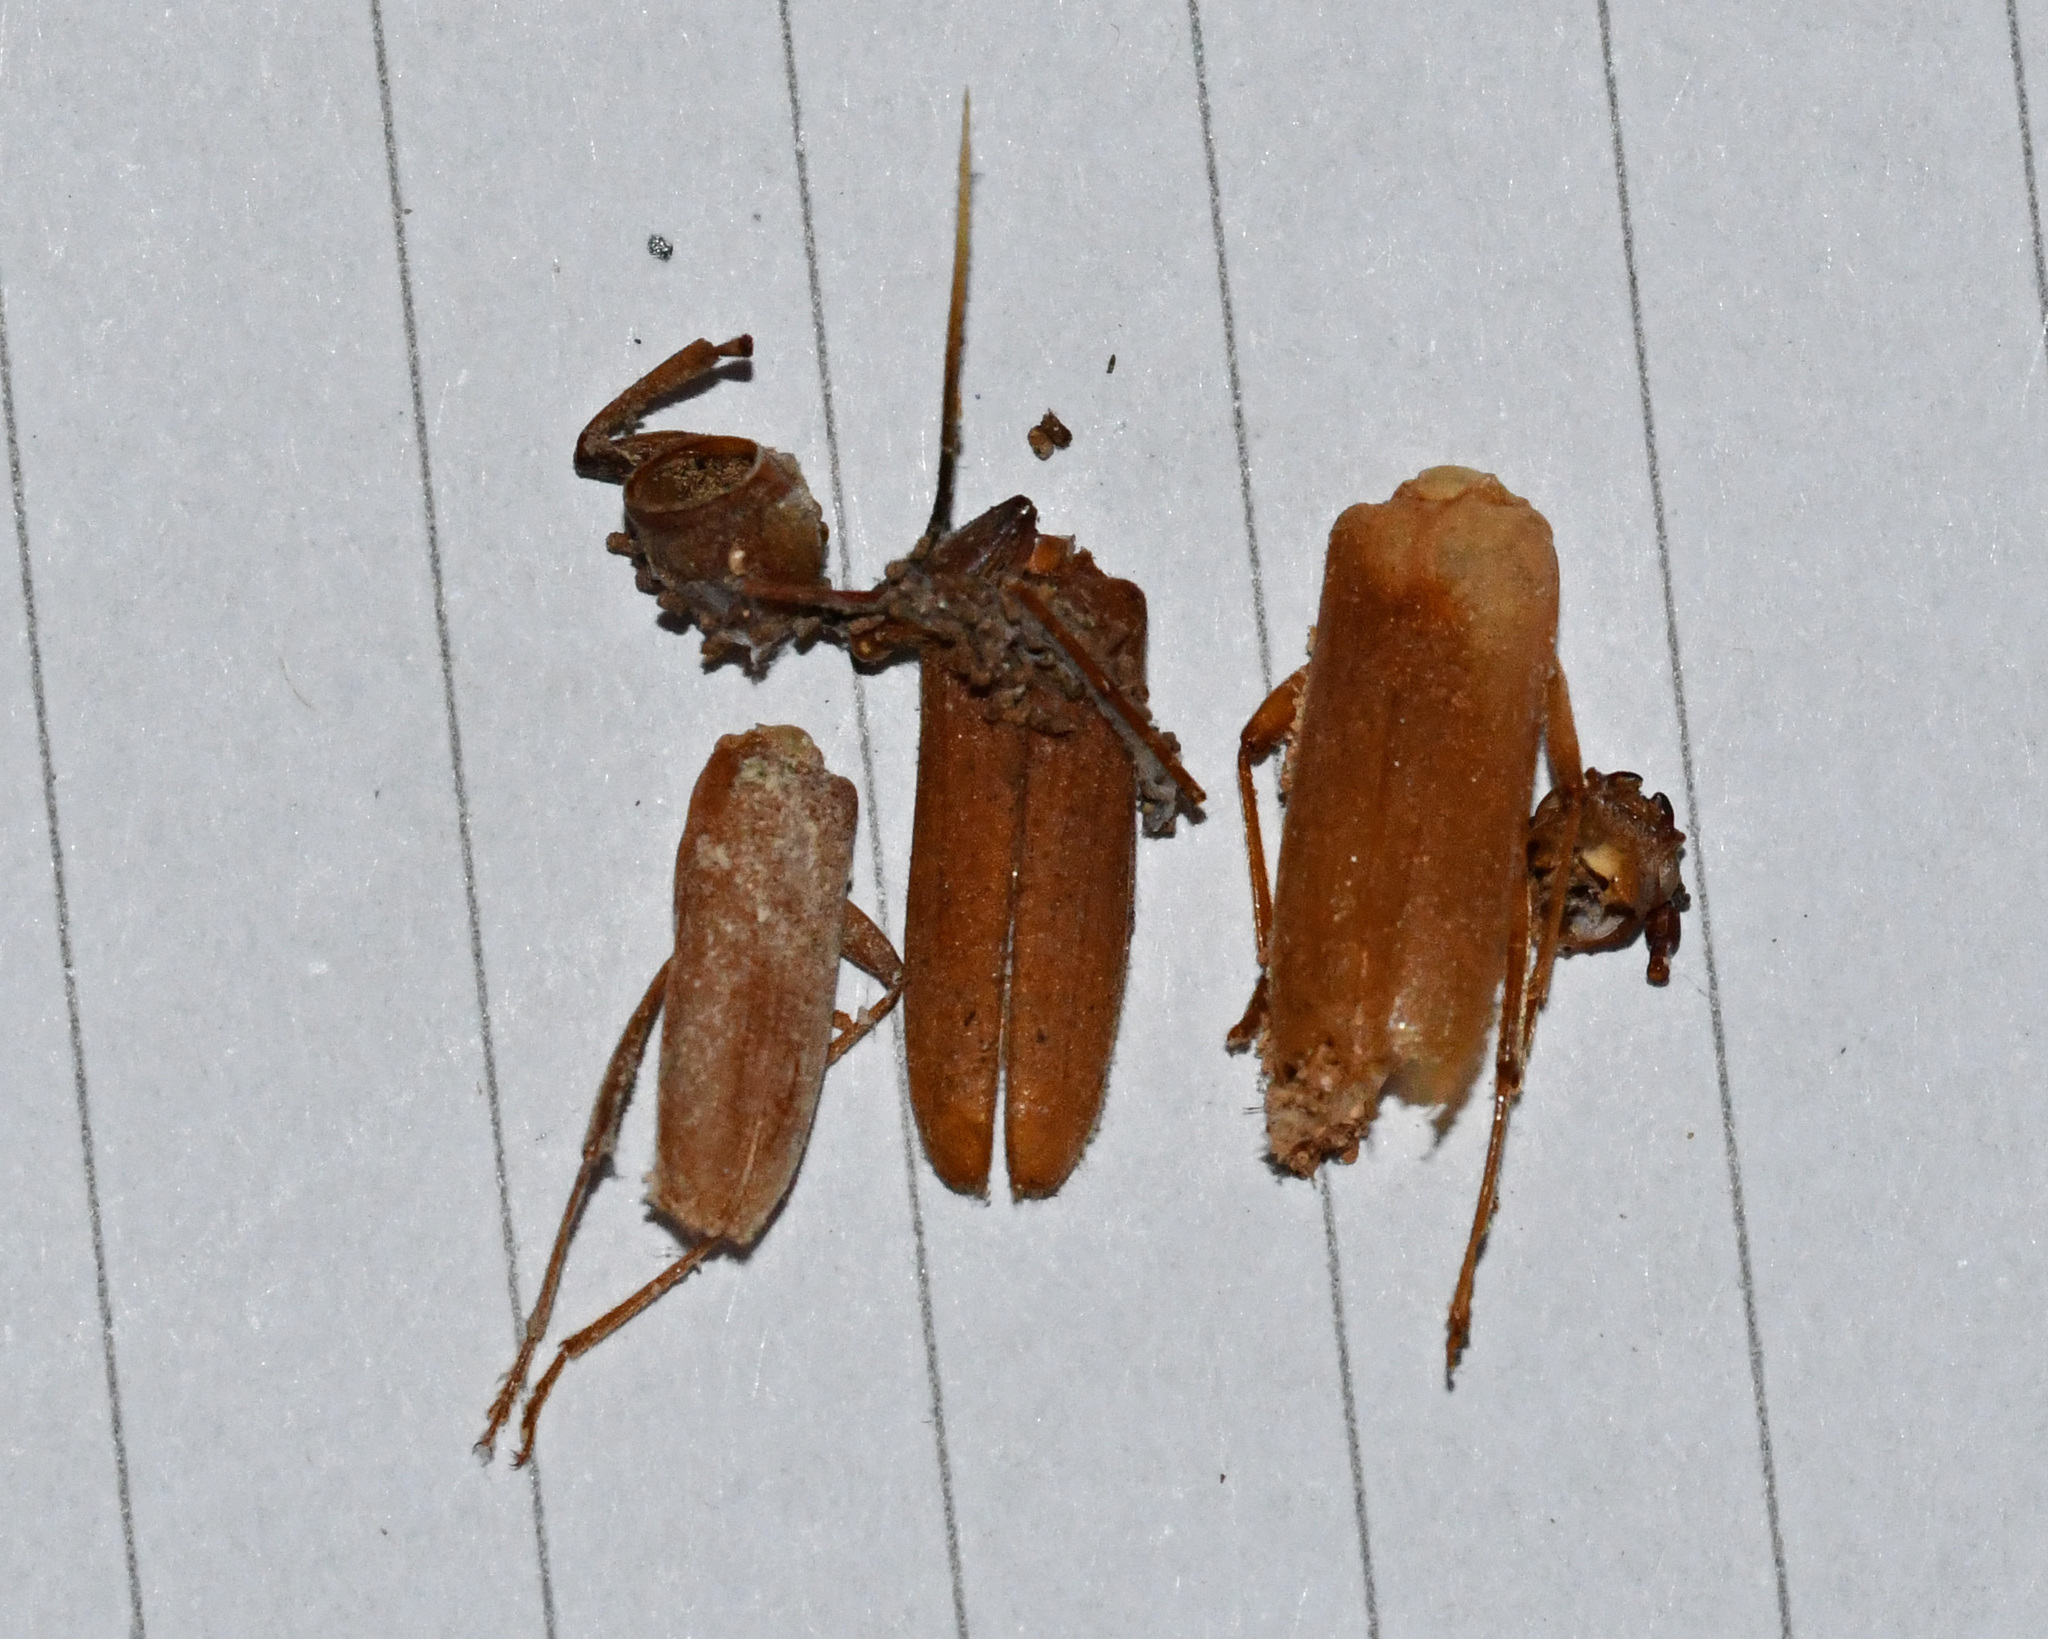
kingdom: Animalia
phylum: Arthropoda
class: Insecta
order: Coleoptera
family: Cerambycidae
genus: Stromatium
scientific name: Stromatium auratum
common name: Long-horned beetle
